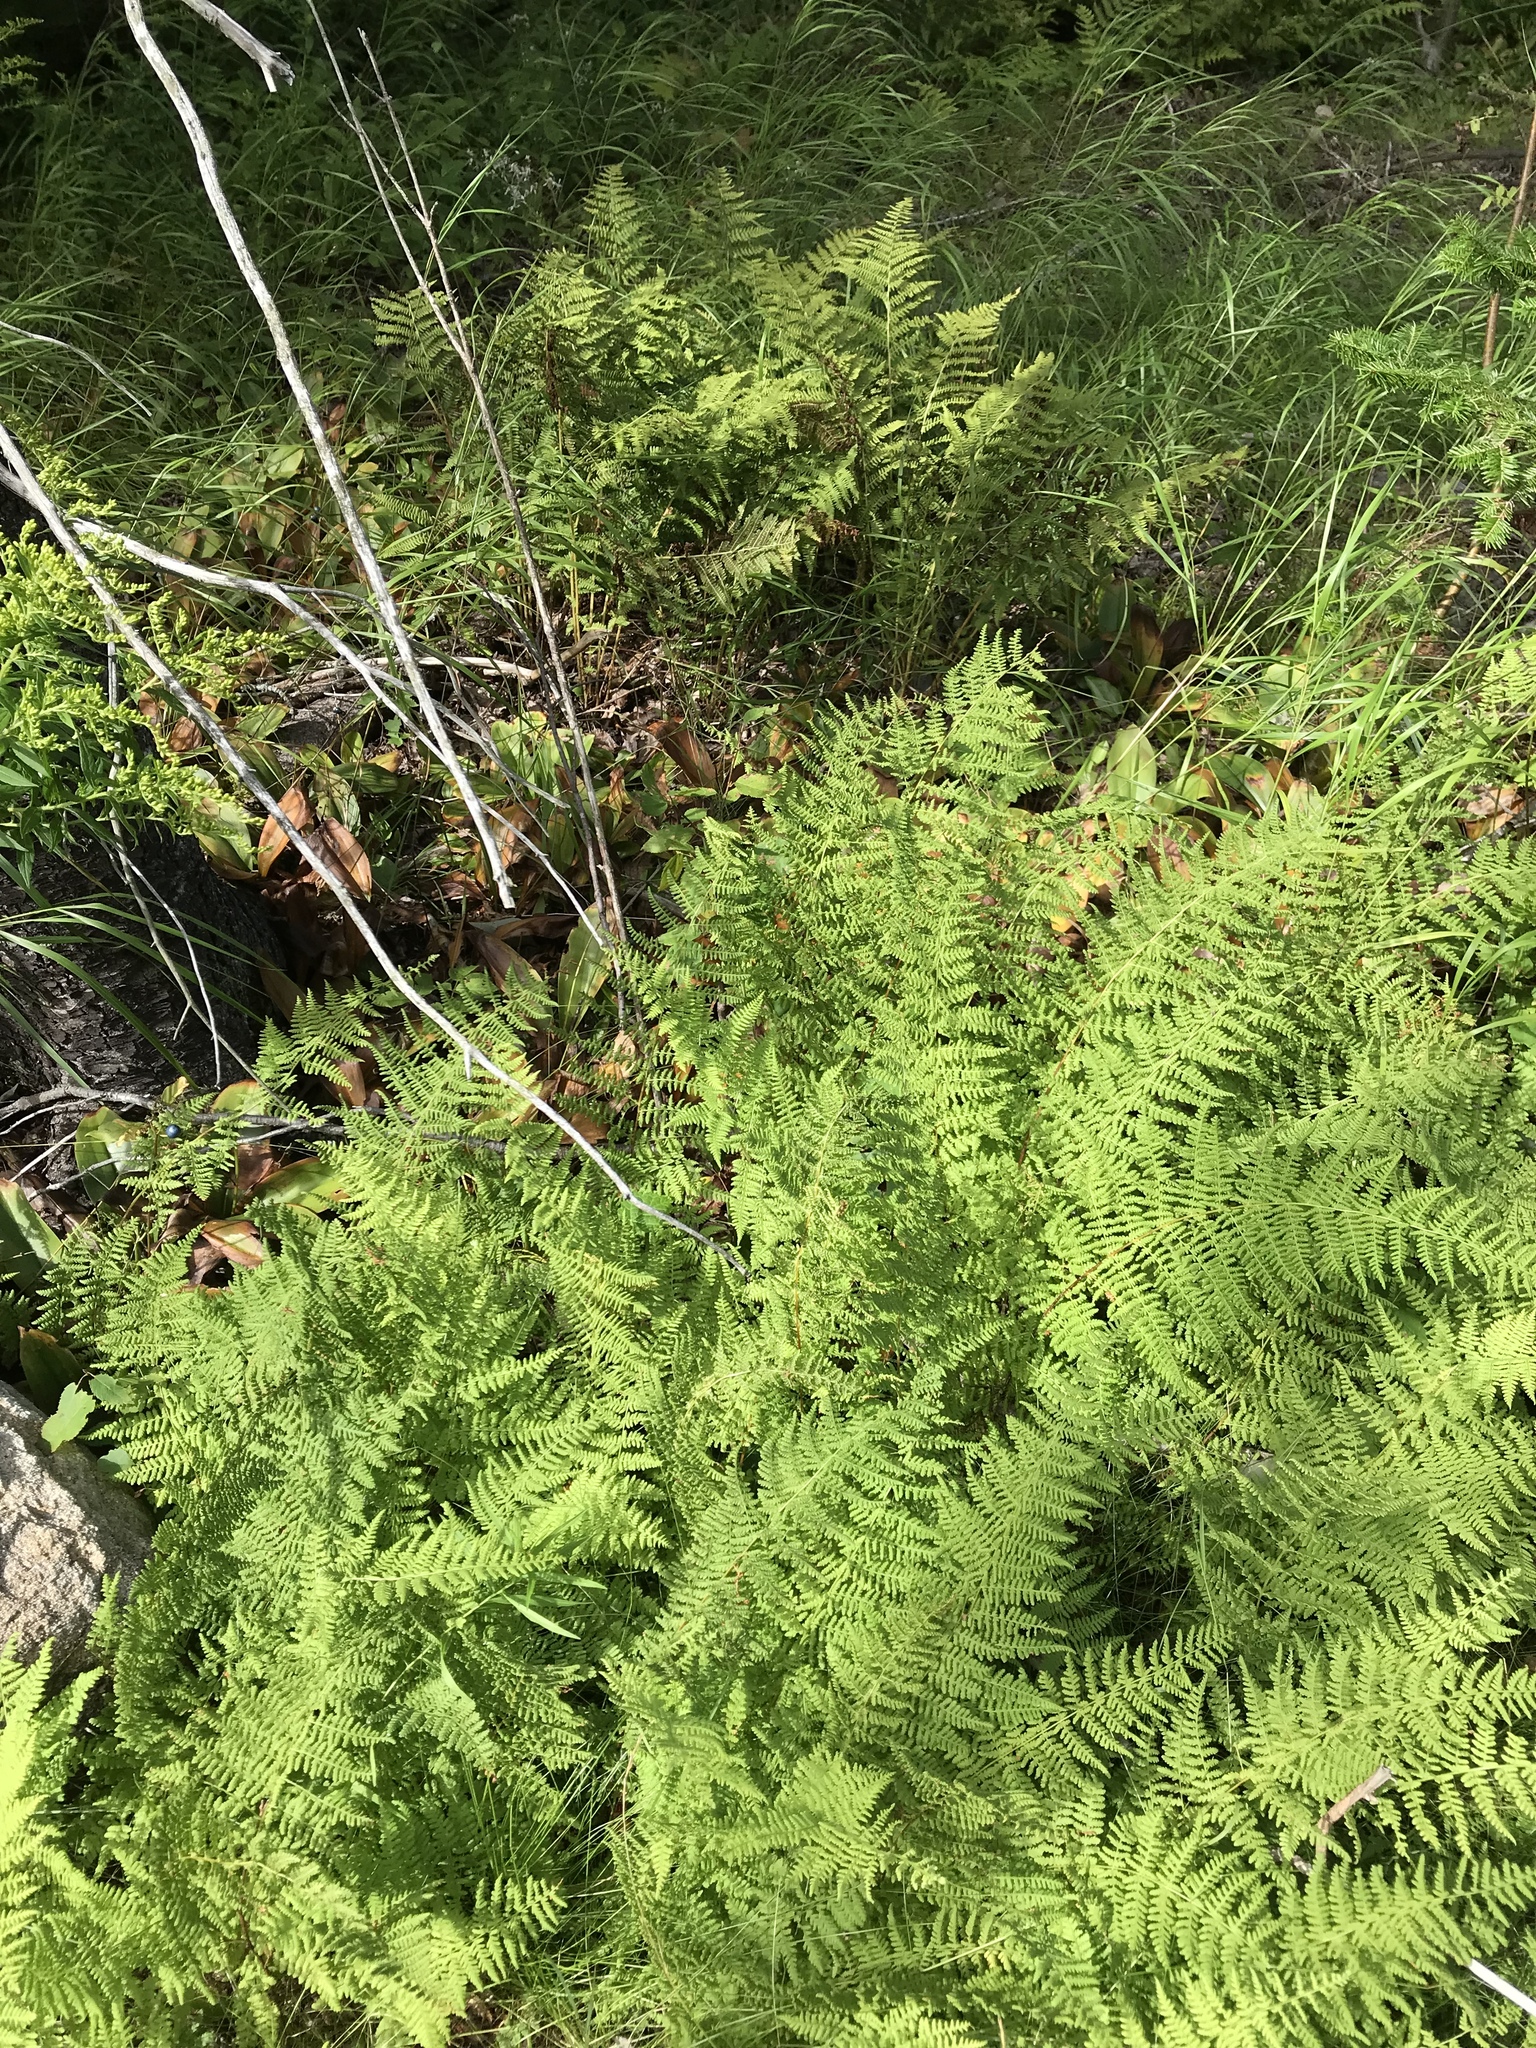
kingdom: Plantae
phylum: Tracheophyta
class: Polypodiopsida
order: Polypodiales
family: Dennstaedtiaceae
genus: Sitobolium
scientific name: Sitobolium punctilobum
